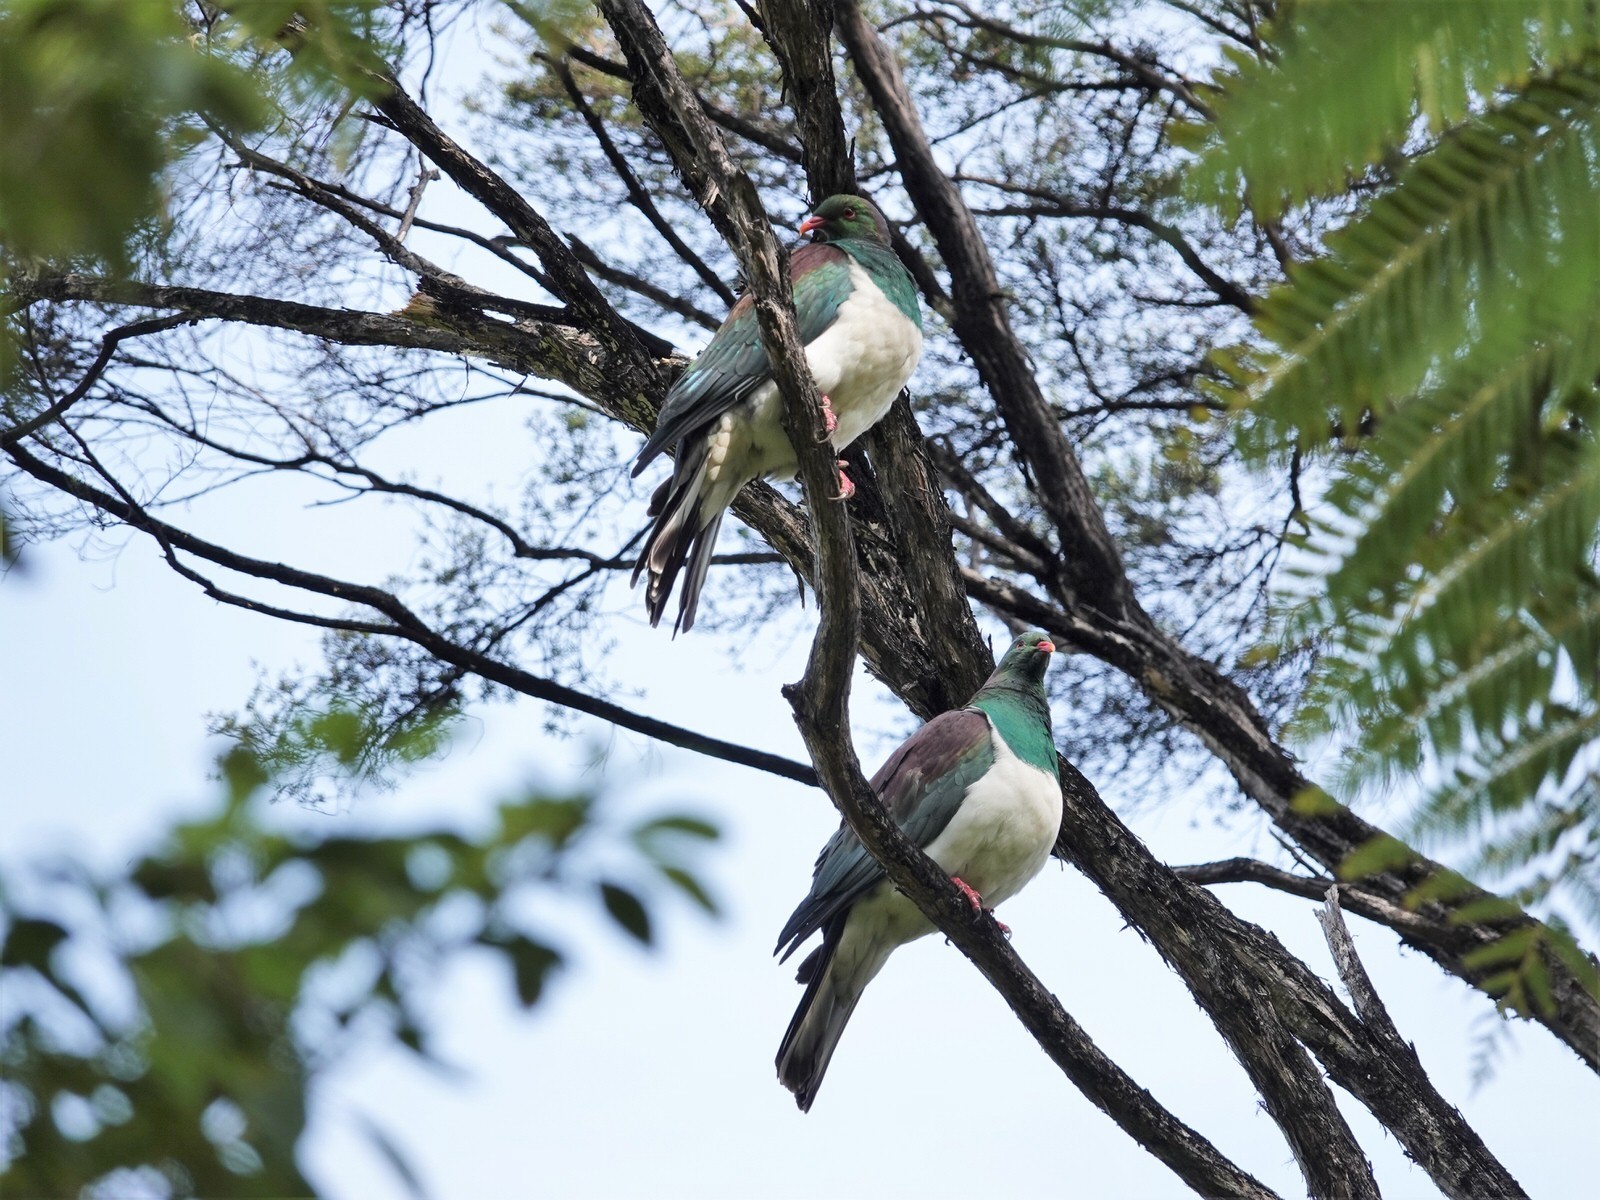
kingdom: Animalia
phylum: Chordata
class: Aves
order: Columbiformes
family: Columbidae
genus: Hemiphaga
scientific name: Hemiphaga novaeseelandiae
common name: New zealand pigeon
